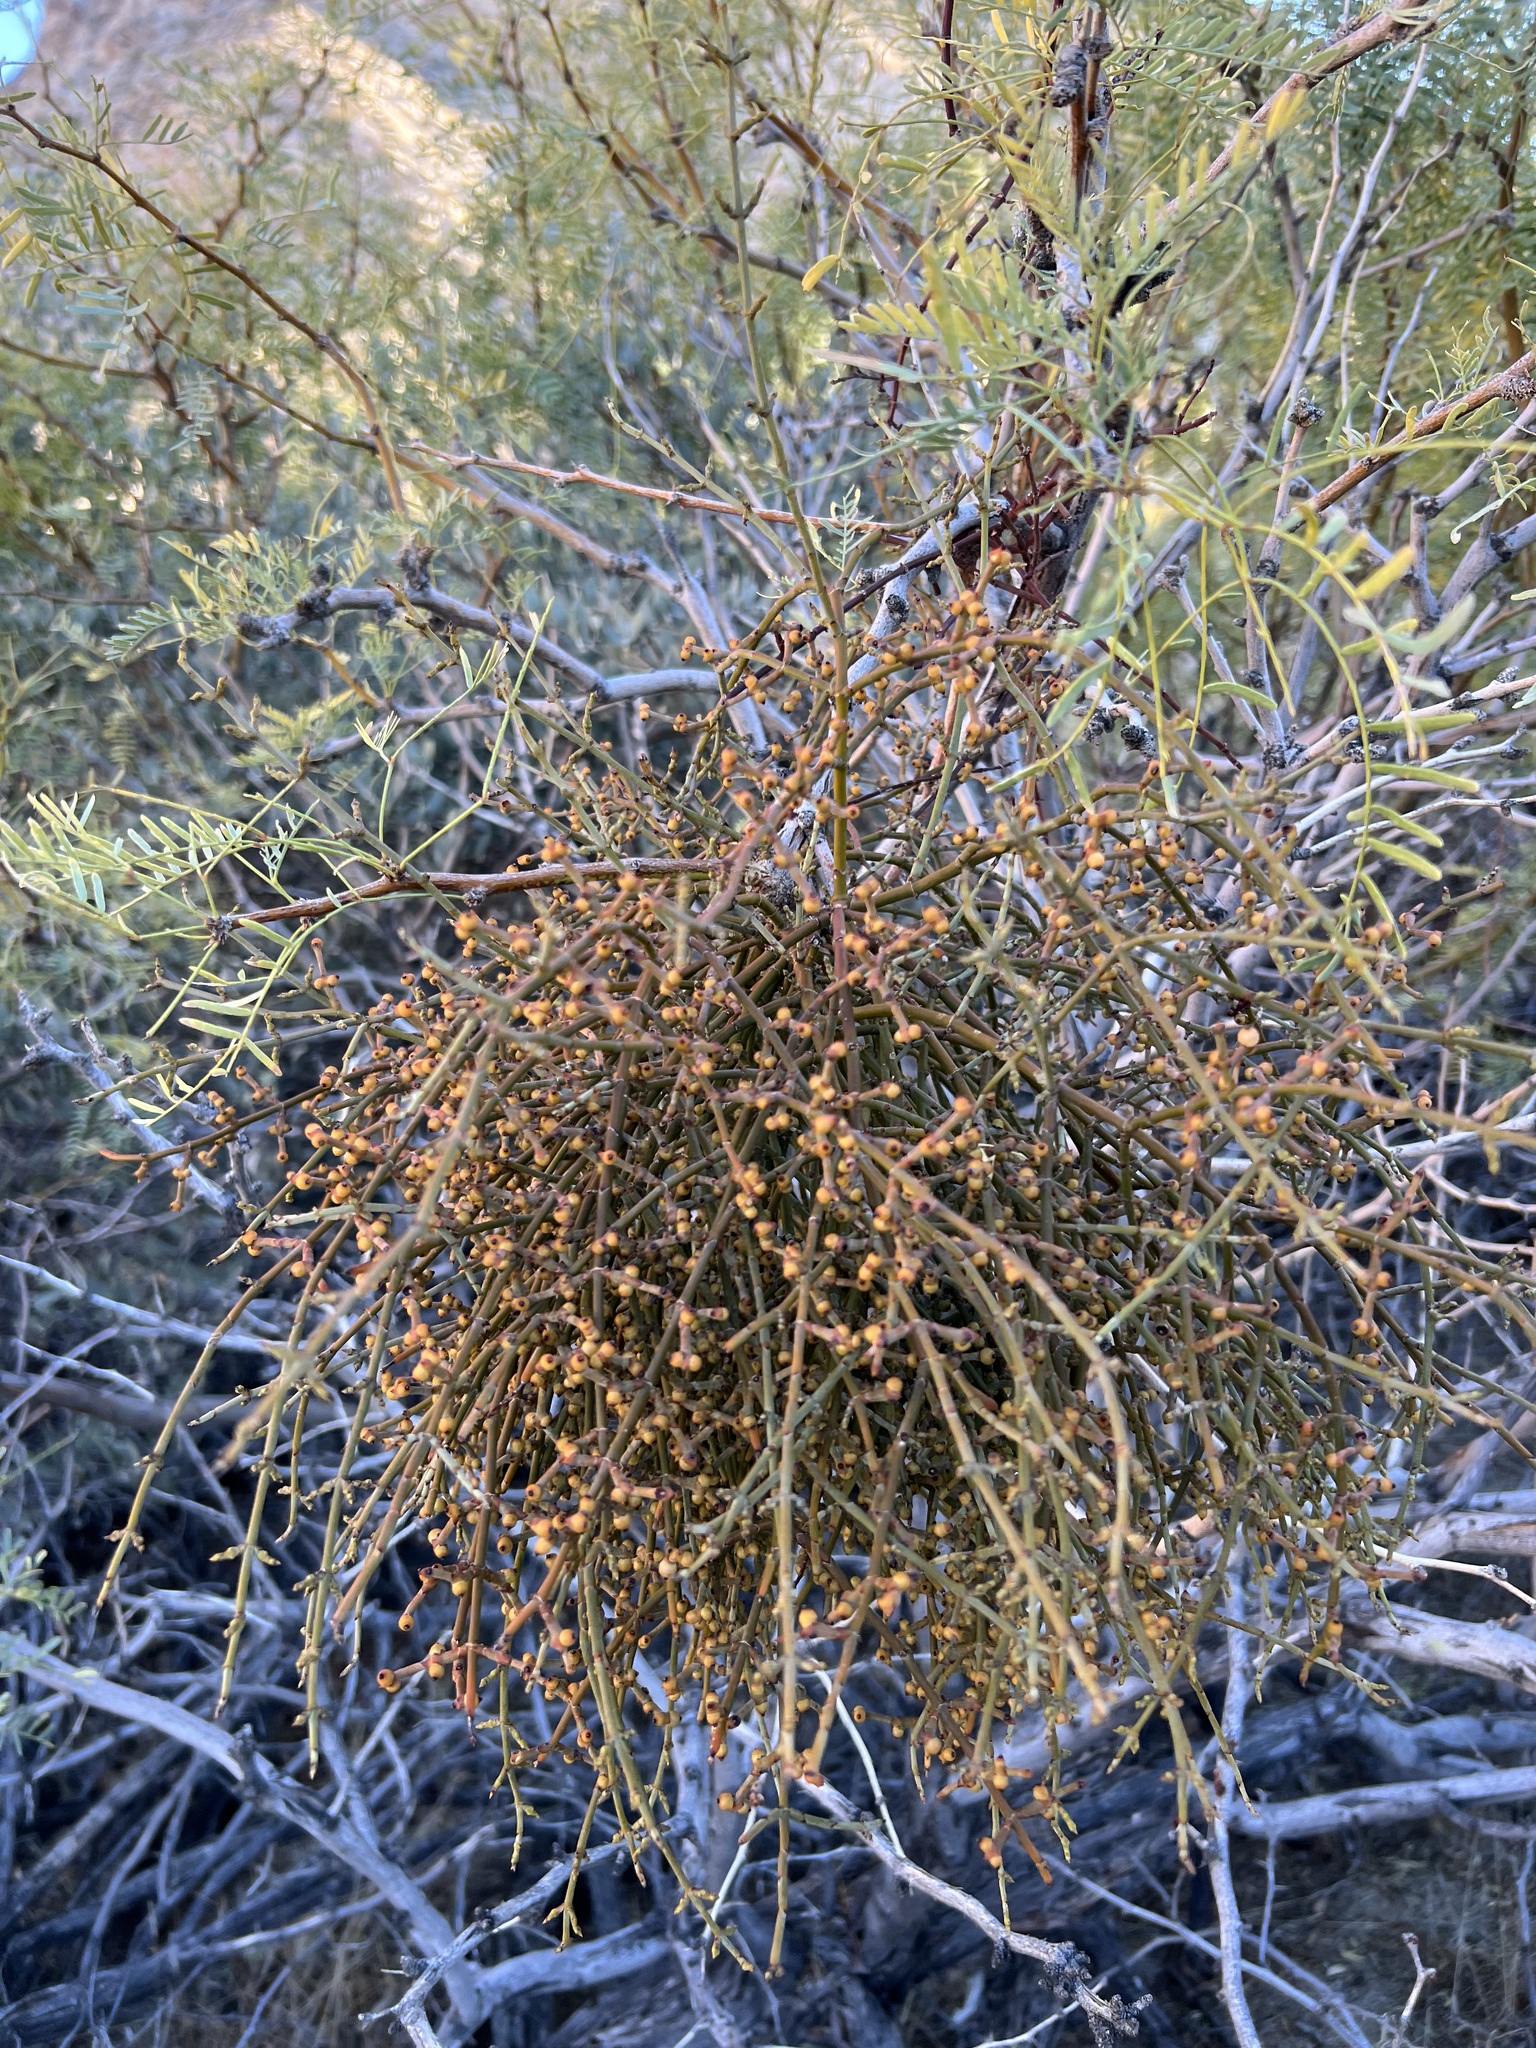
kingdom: Plantae
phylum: Tracheophyta
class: Magnoliopsida
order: Santalales
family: Viscaceae
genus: Phoradendron
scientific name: Phoradendron californicum
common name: Acacia mistletoe
